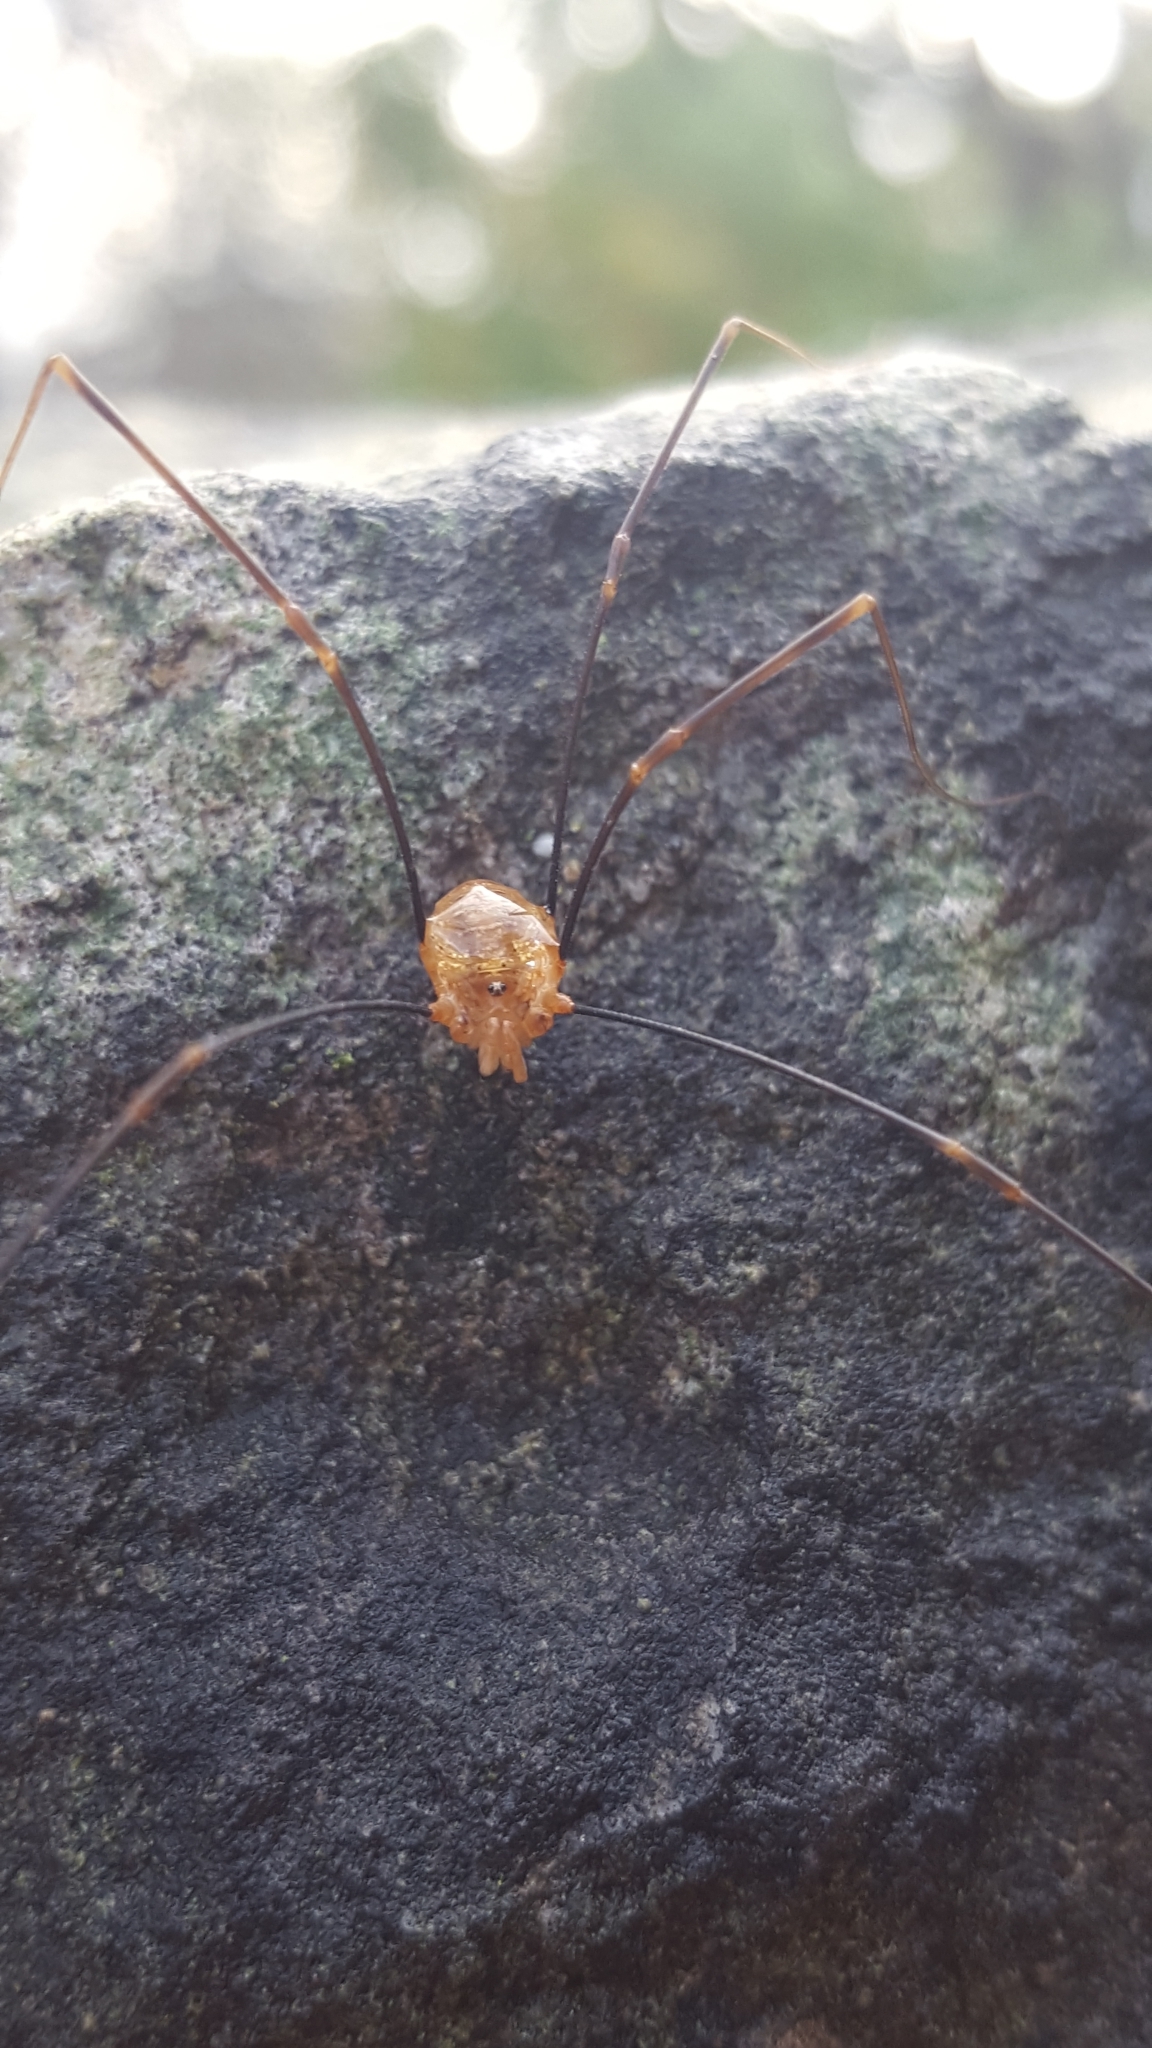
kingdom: Animalia
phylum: Arthropoda
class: Arachnida
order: Opiliones
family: Phalangiidae
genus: Opilio
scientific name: Opilio canestrinii
